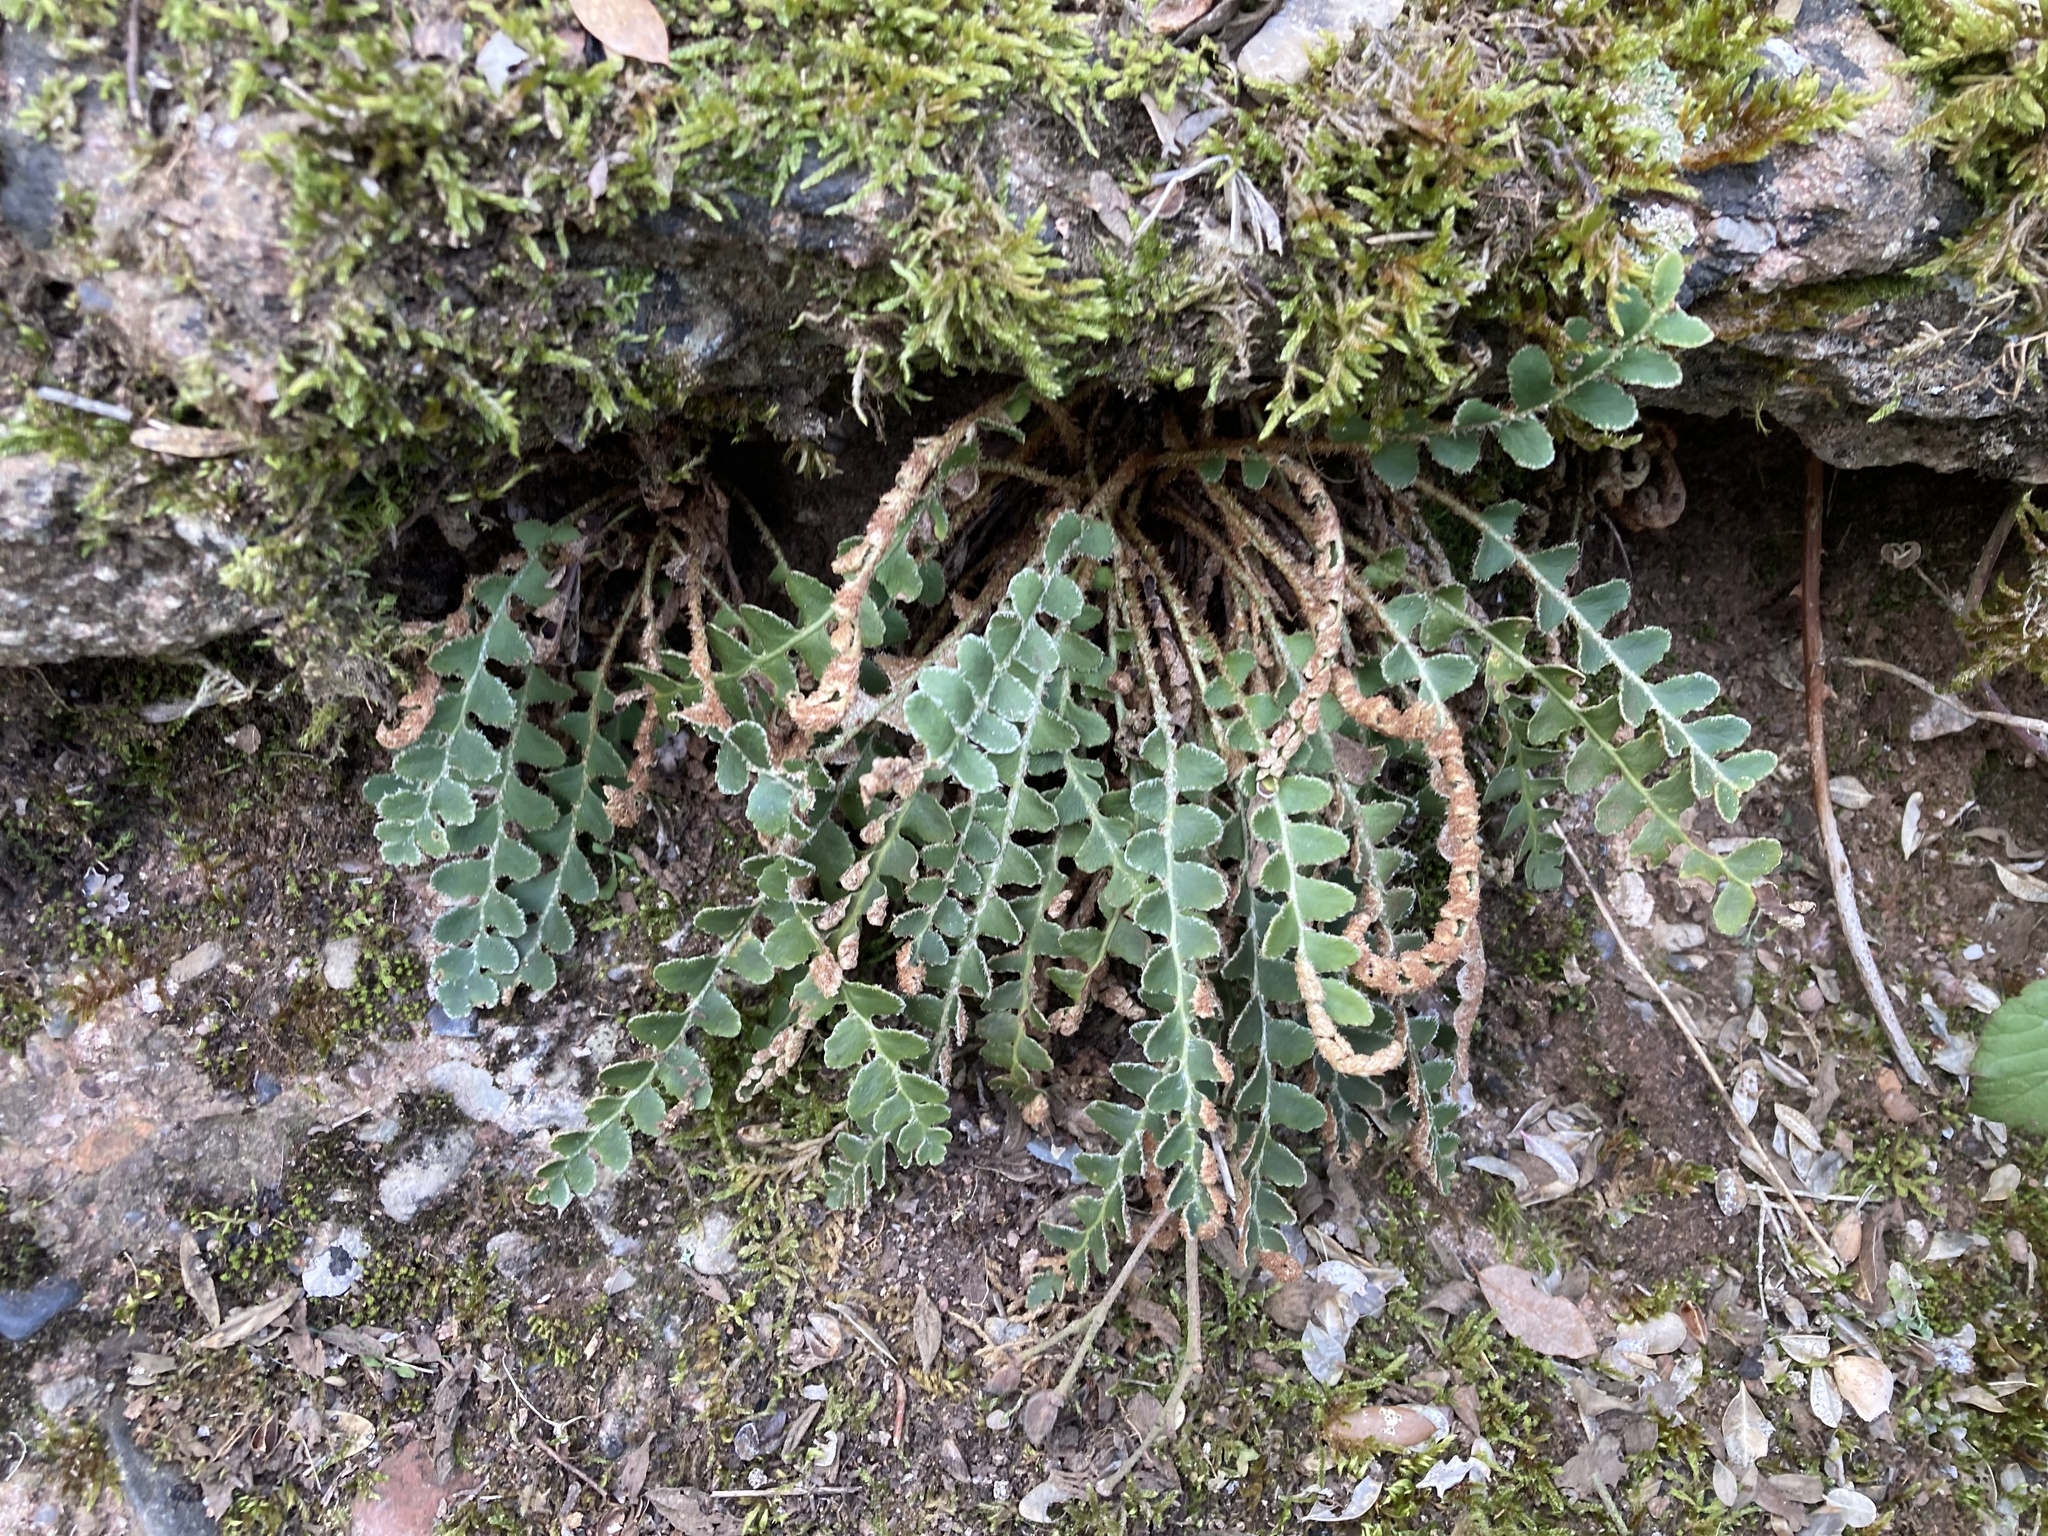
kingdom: Plantae
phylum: Tracheophyta
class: Polypodiopsida
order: Polypodiales
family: Aspleniaceae
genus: Asplenium
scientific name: Asplenium ceterach
